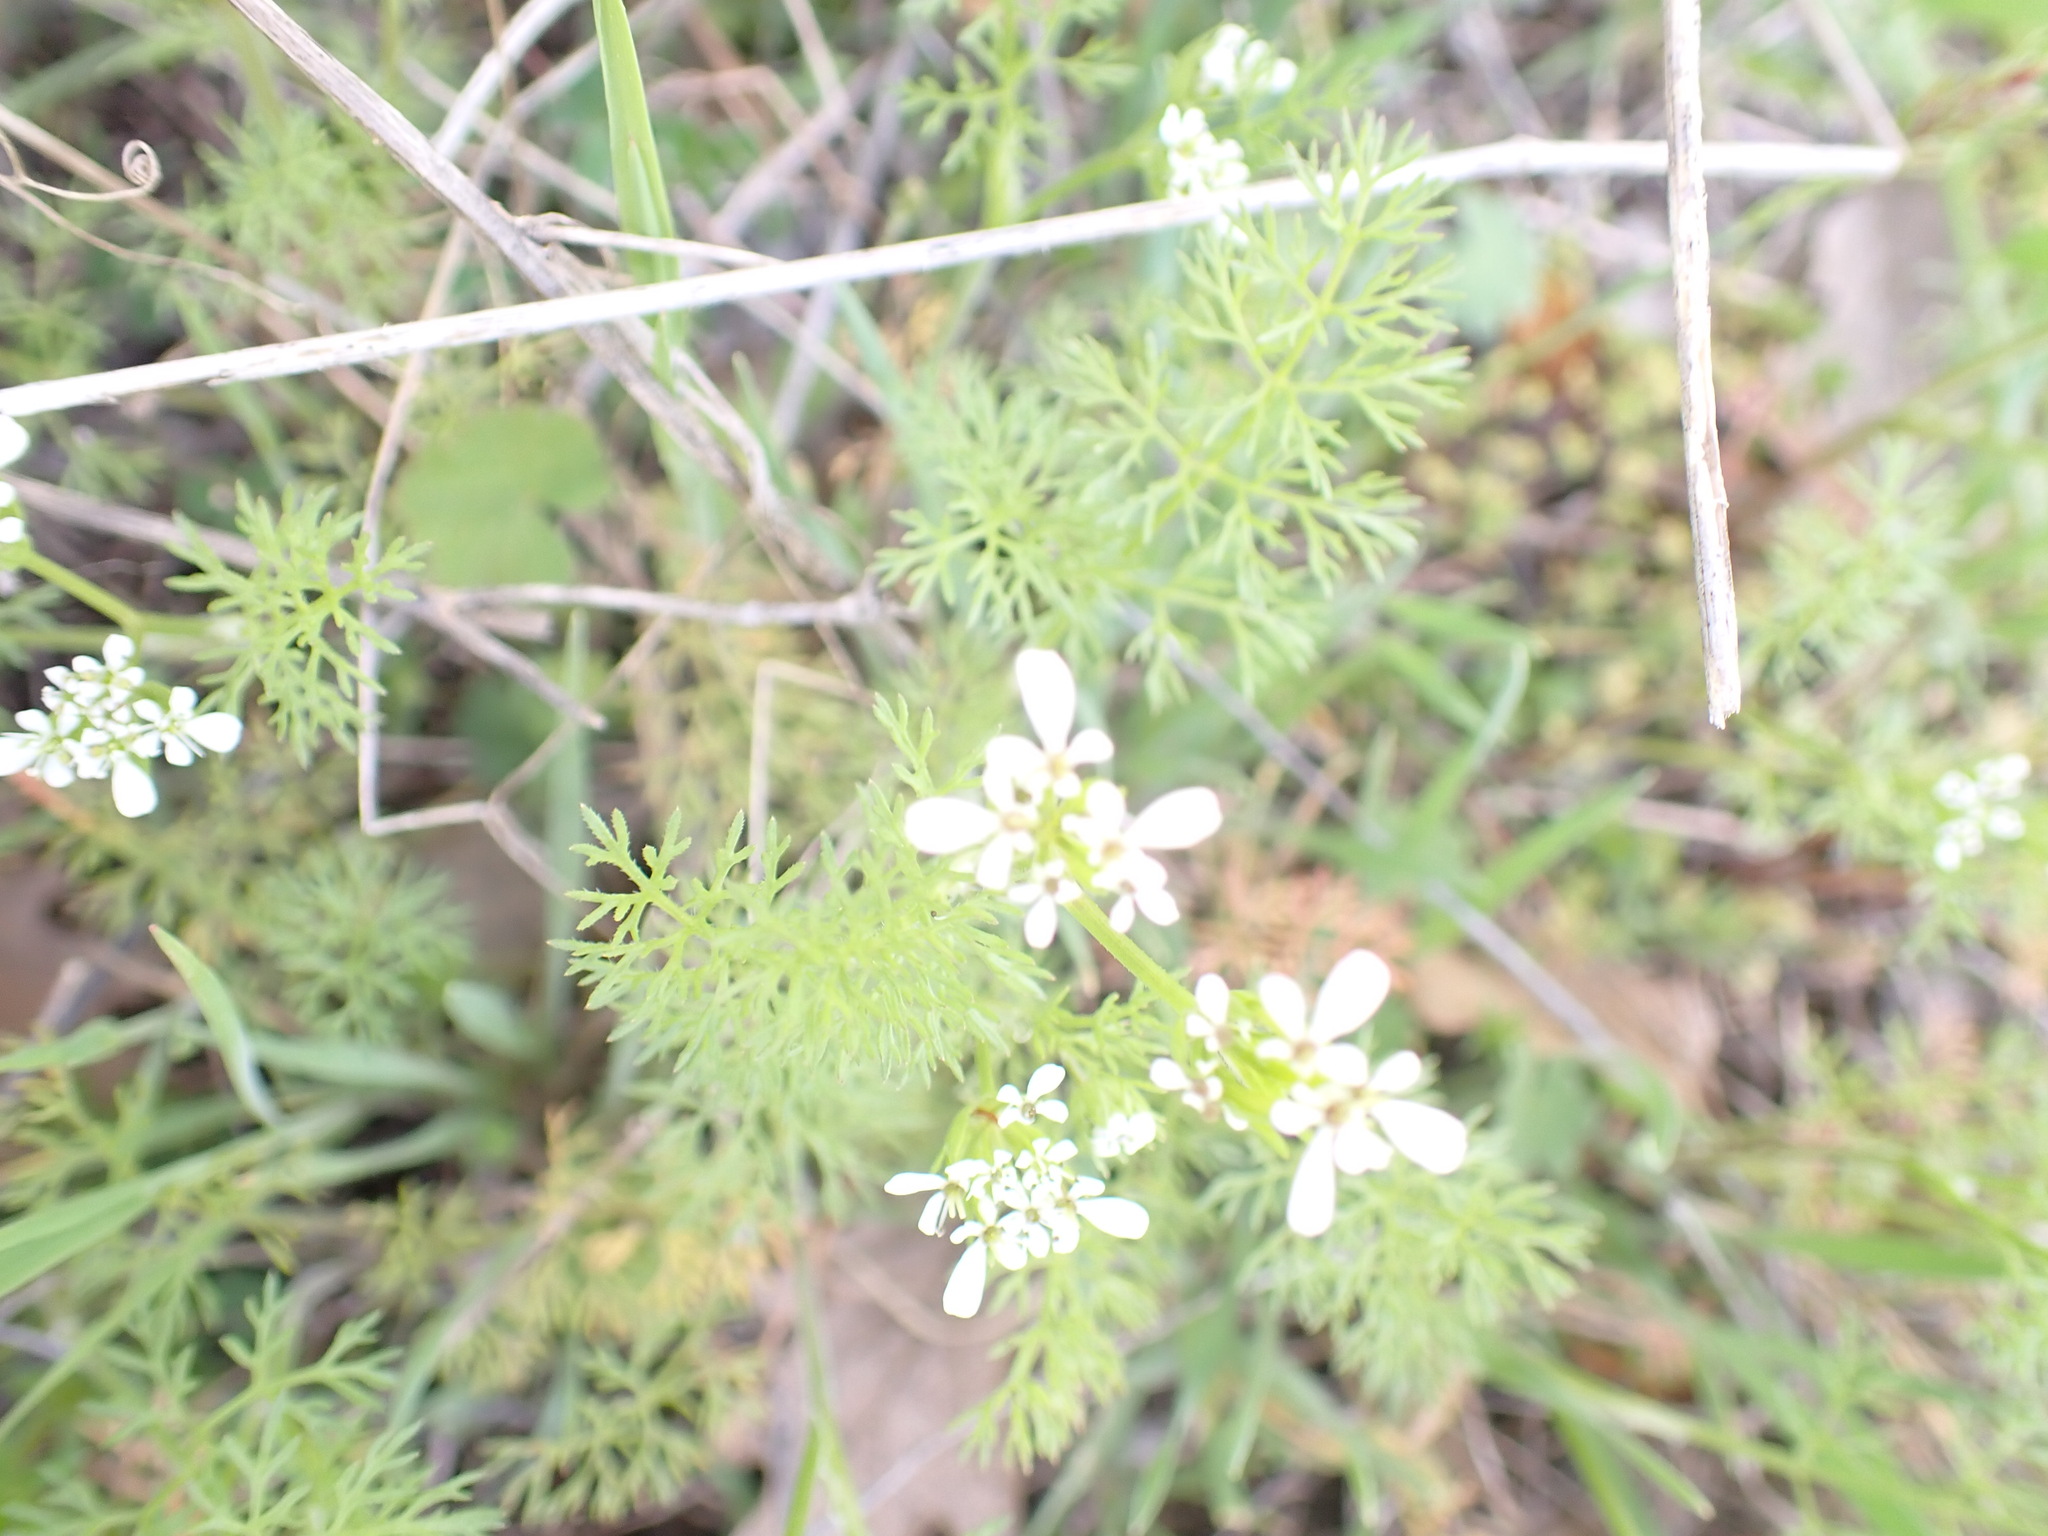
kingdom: Plantae
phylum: Tracheophyta
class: Magnoliopsida
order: Apiales
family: Apiaceae
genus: Scandix
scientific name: Scandix pecten-veneris
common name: Shepherd's-needle
